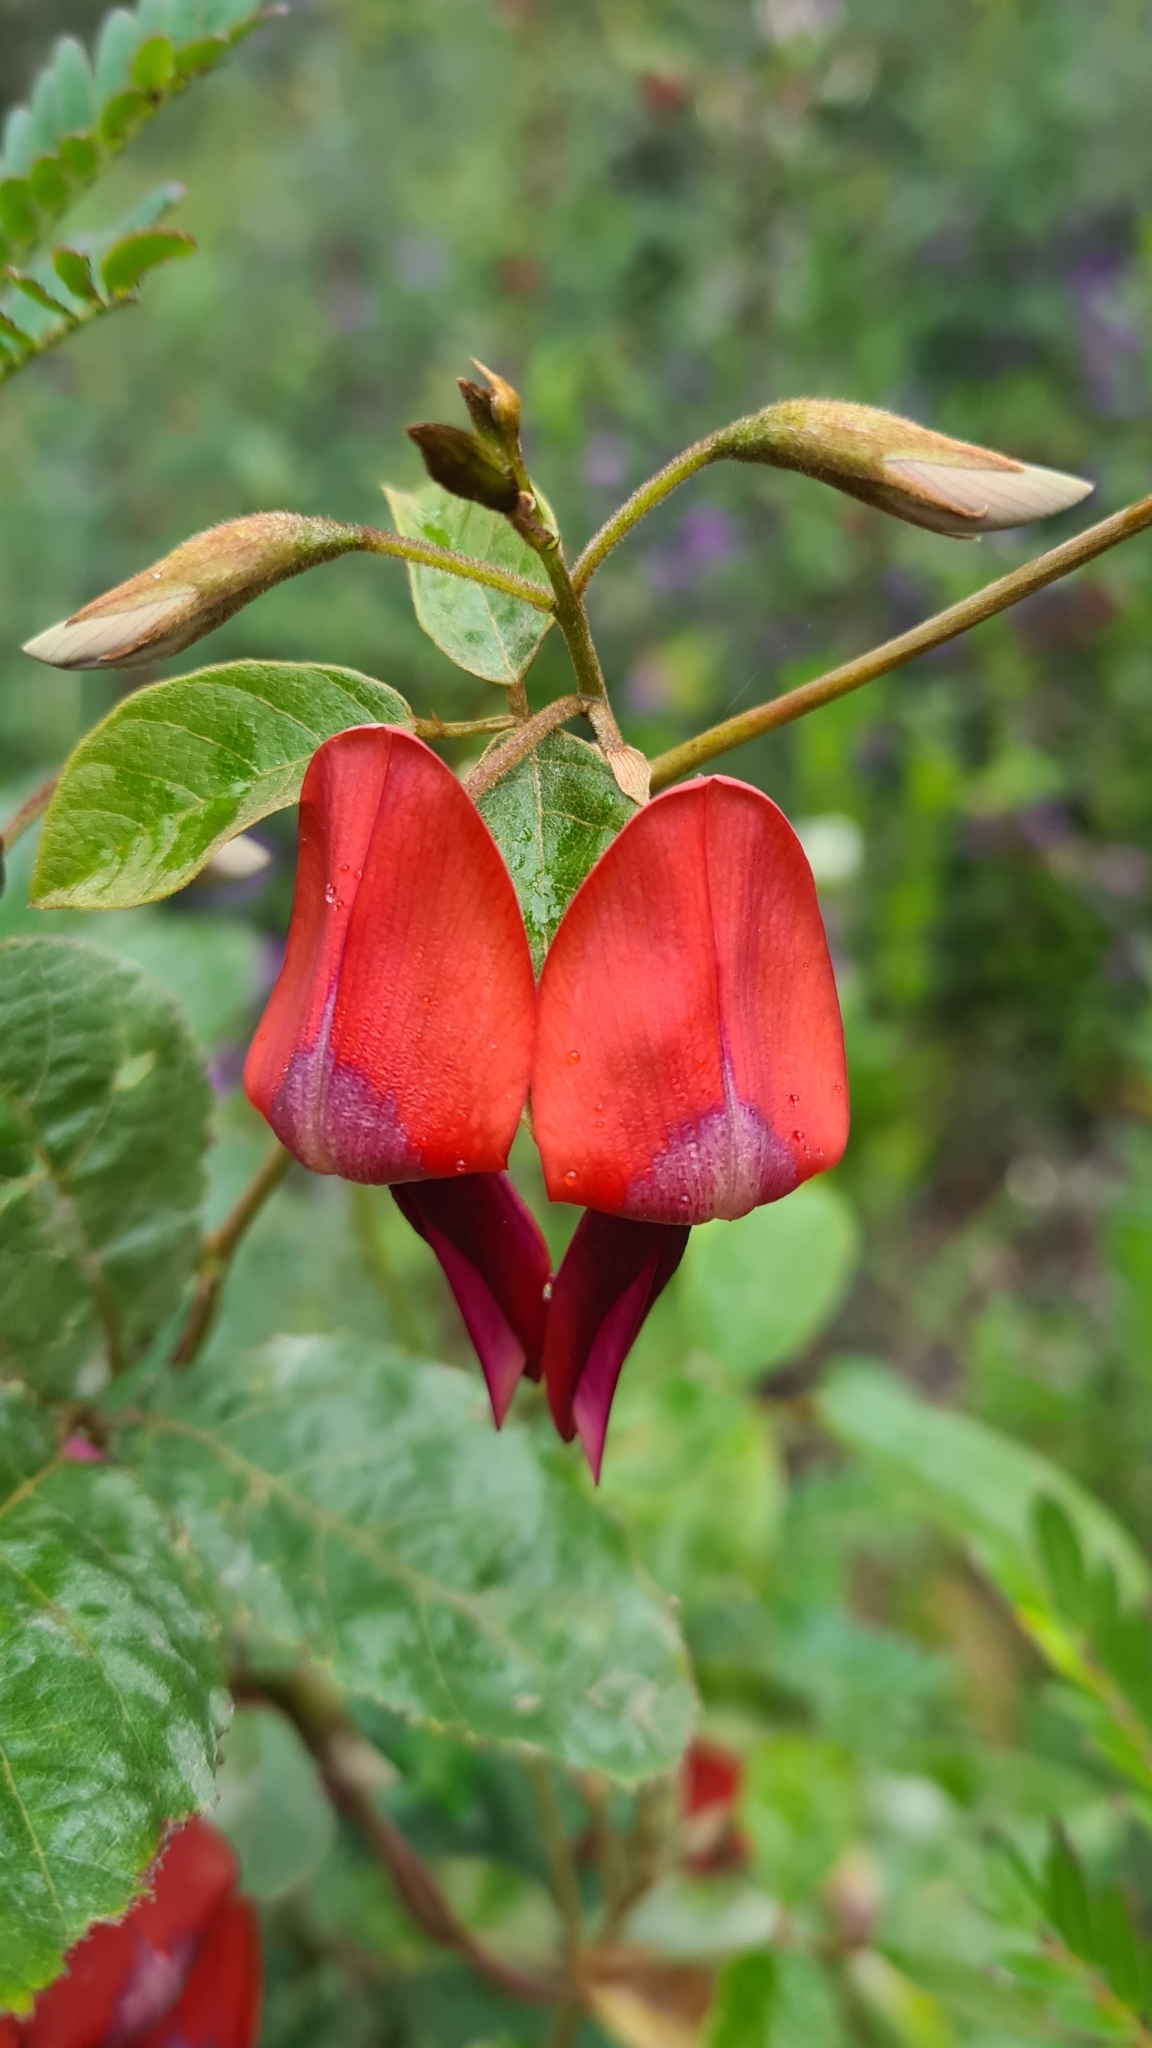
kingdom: Plantae
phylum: Tracheophyta
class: Magnoliopsida
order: Fabales
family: Fabaceae
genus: Kennedia
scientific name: Kennedia rubicunda
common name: Red kennedy-pea
